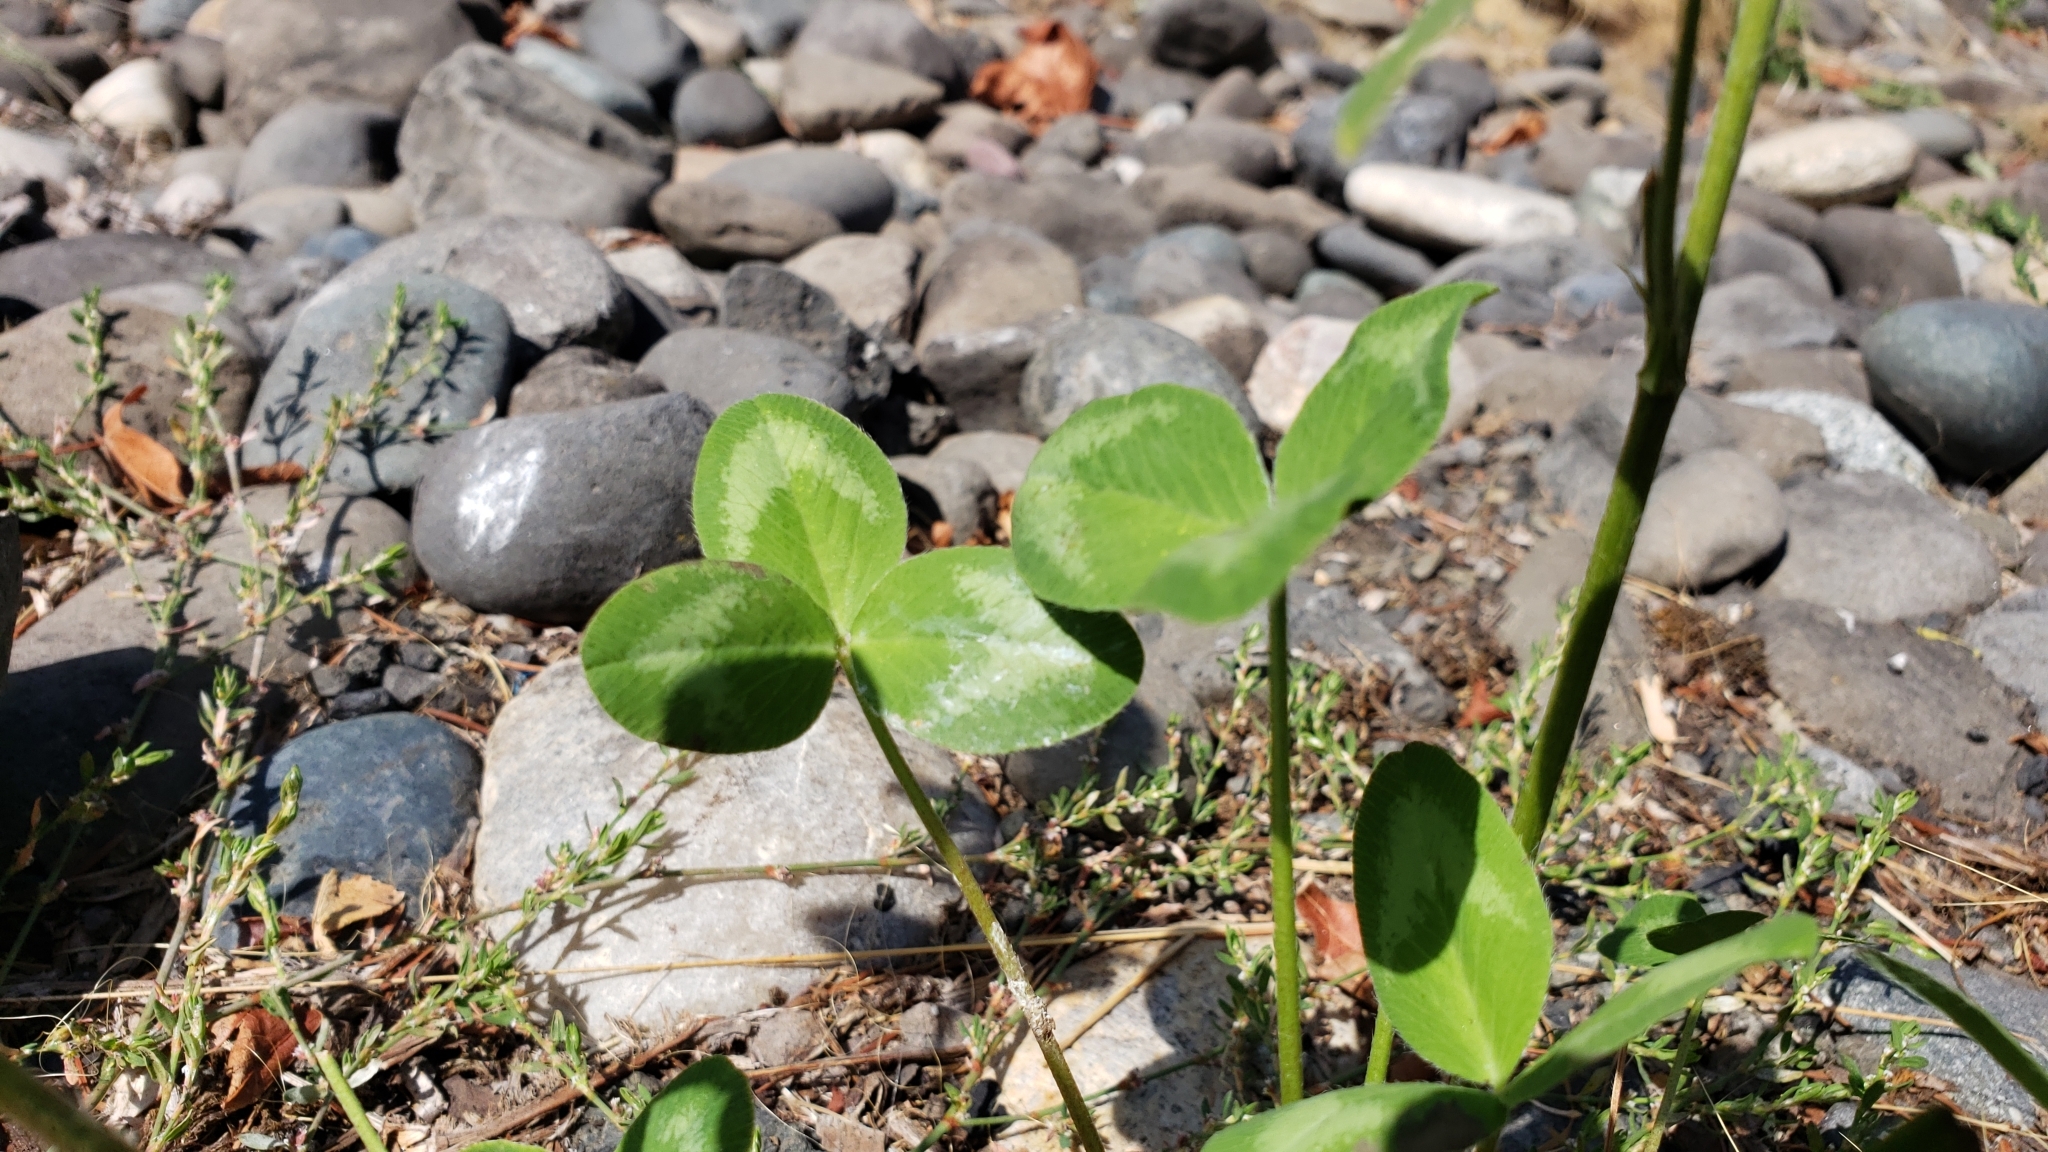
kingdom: Plantae
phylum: Tracheophyta
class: Magnoliopsida
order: Fabales
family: Fabaceae
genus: Trifolium
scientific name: Trifolium pratense
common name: Red clover
